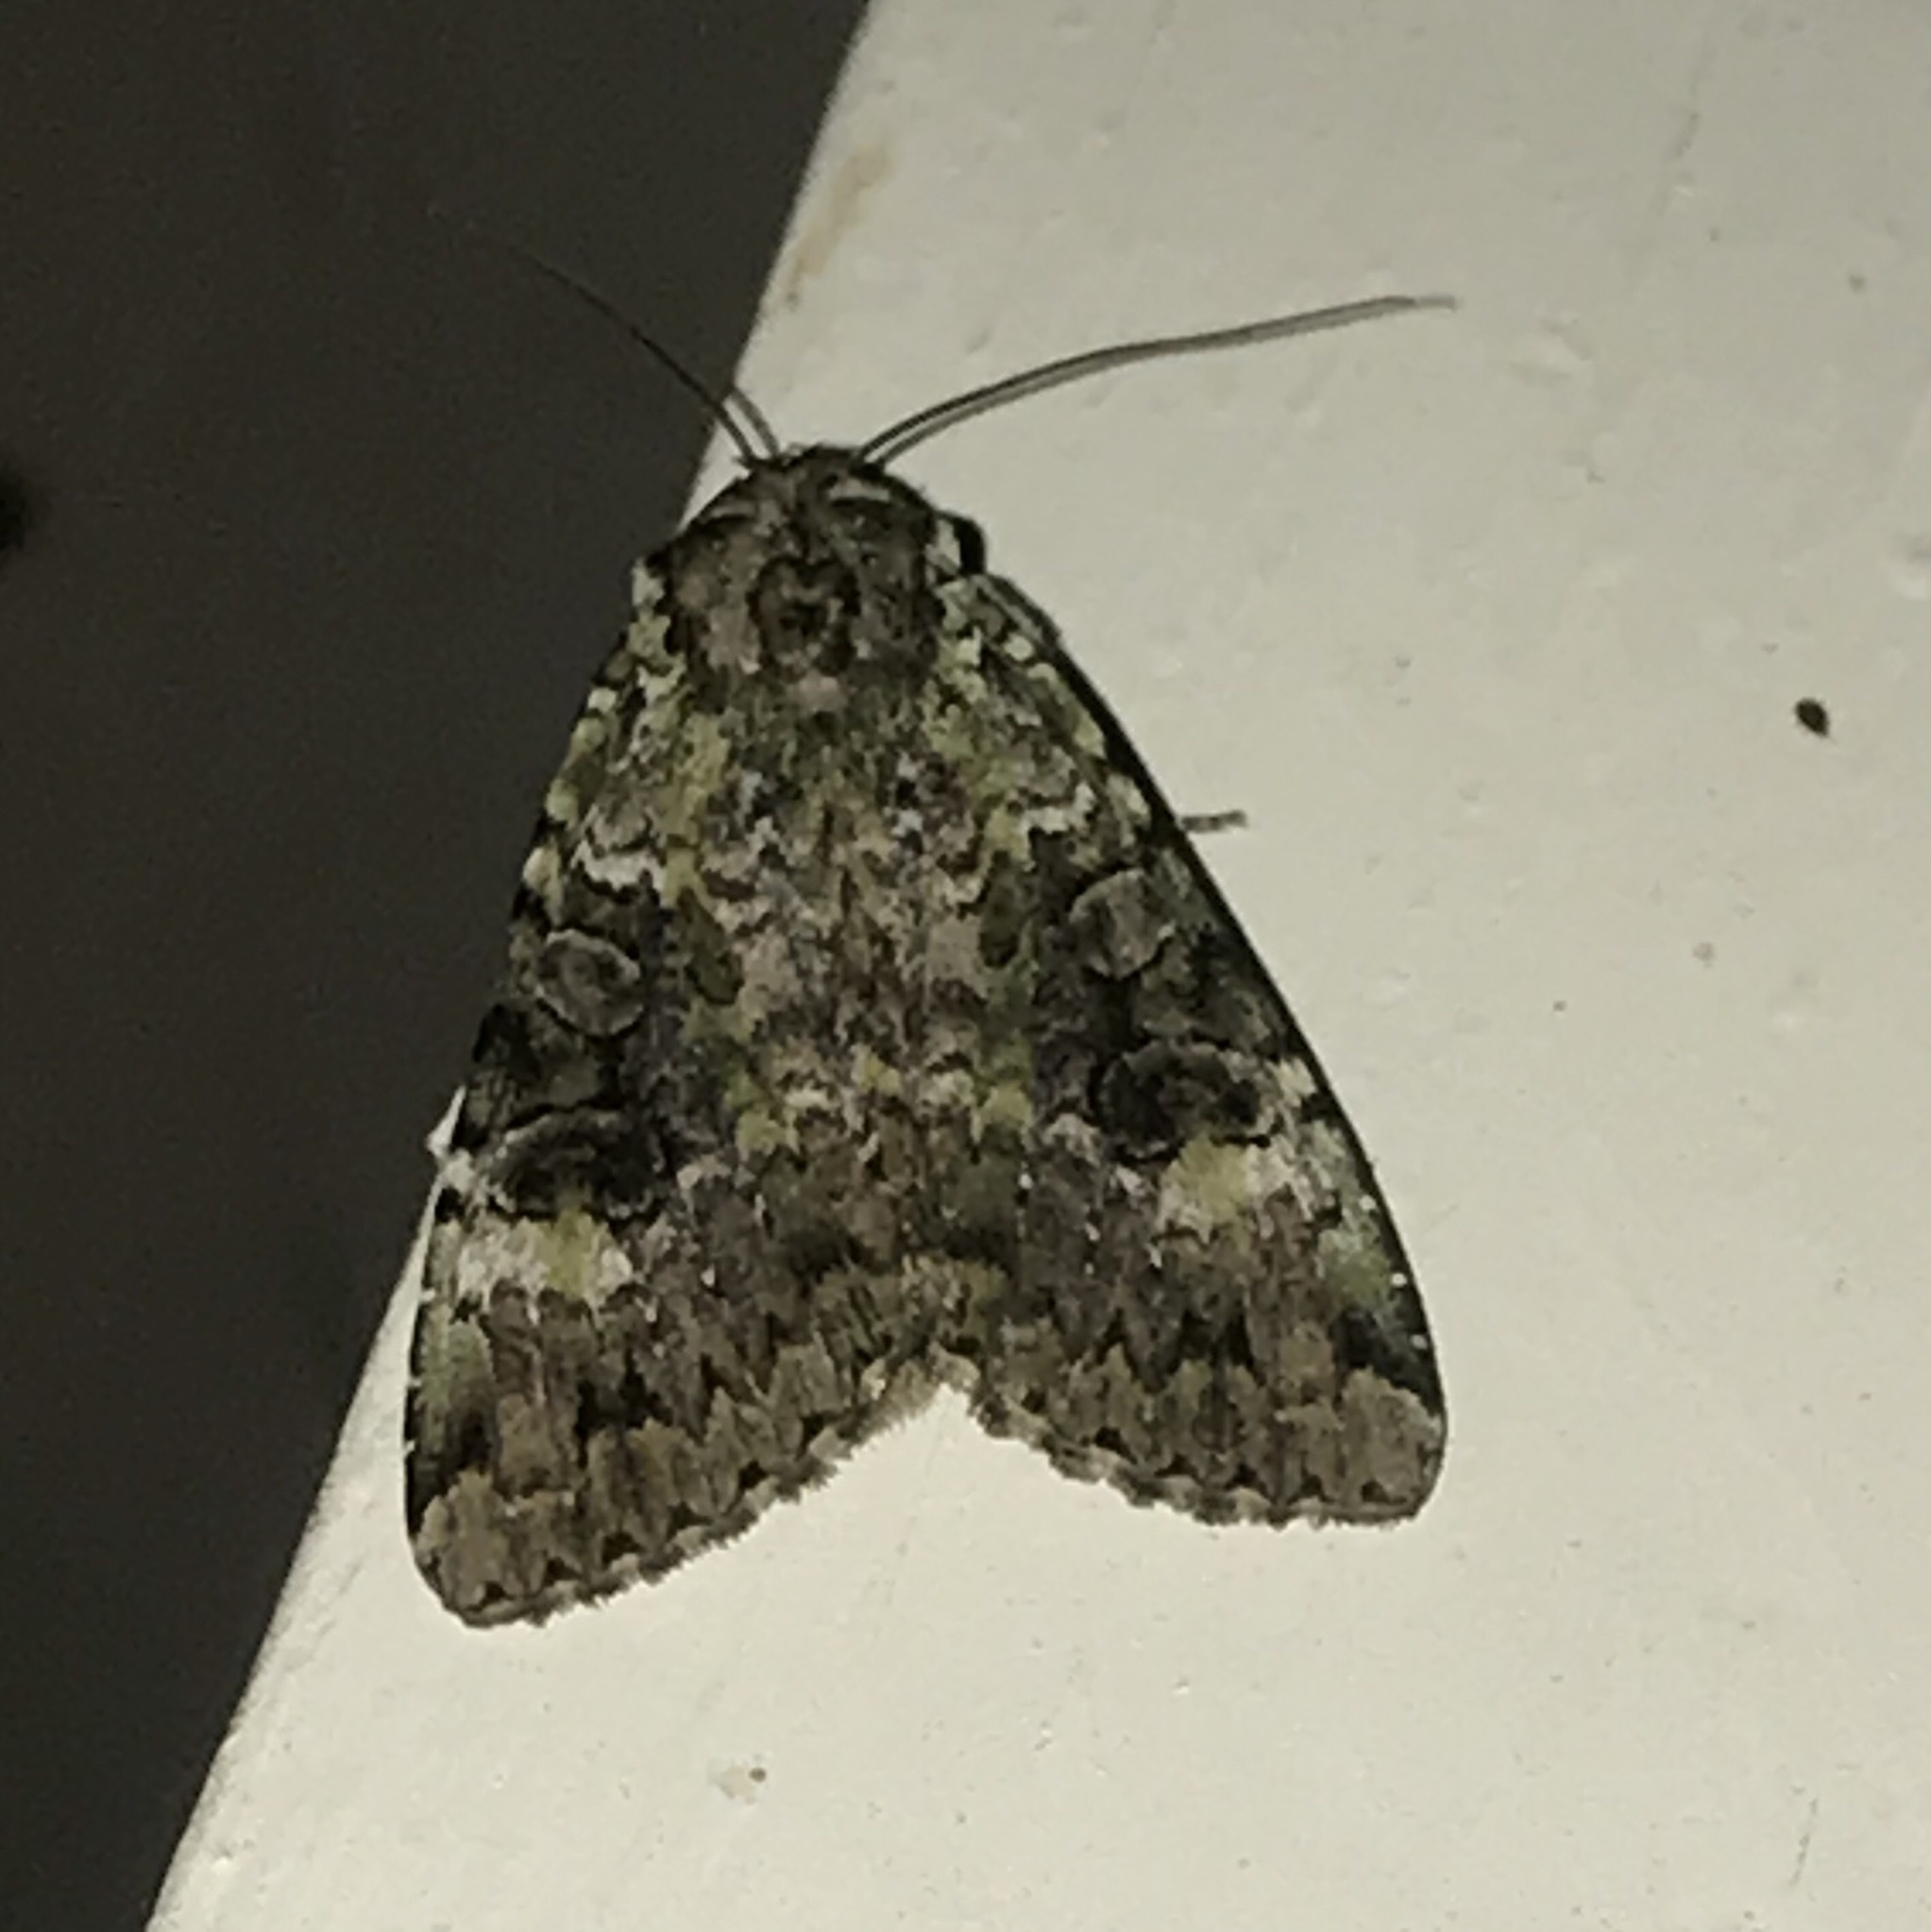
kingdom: Animalia
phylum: Arthropoda
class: Insecta
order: Lepidoptera
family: Noctuidae
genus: Anaplectoides
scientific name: Anaplectoides prasina
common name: Green arches
